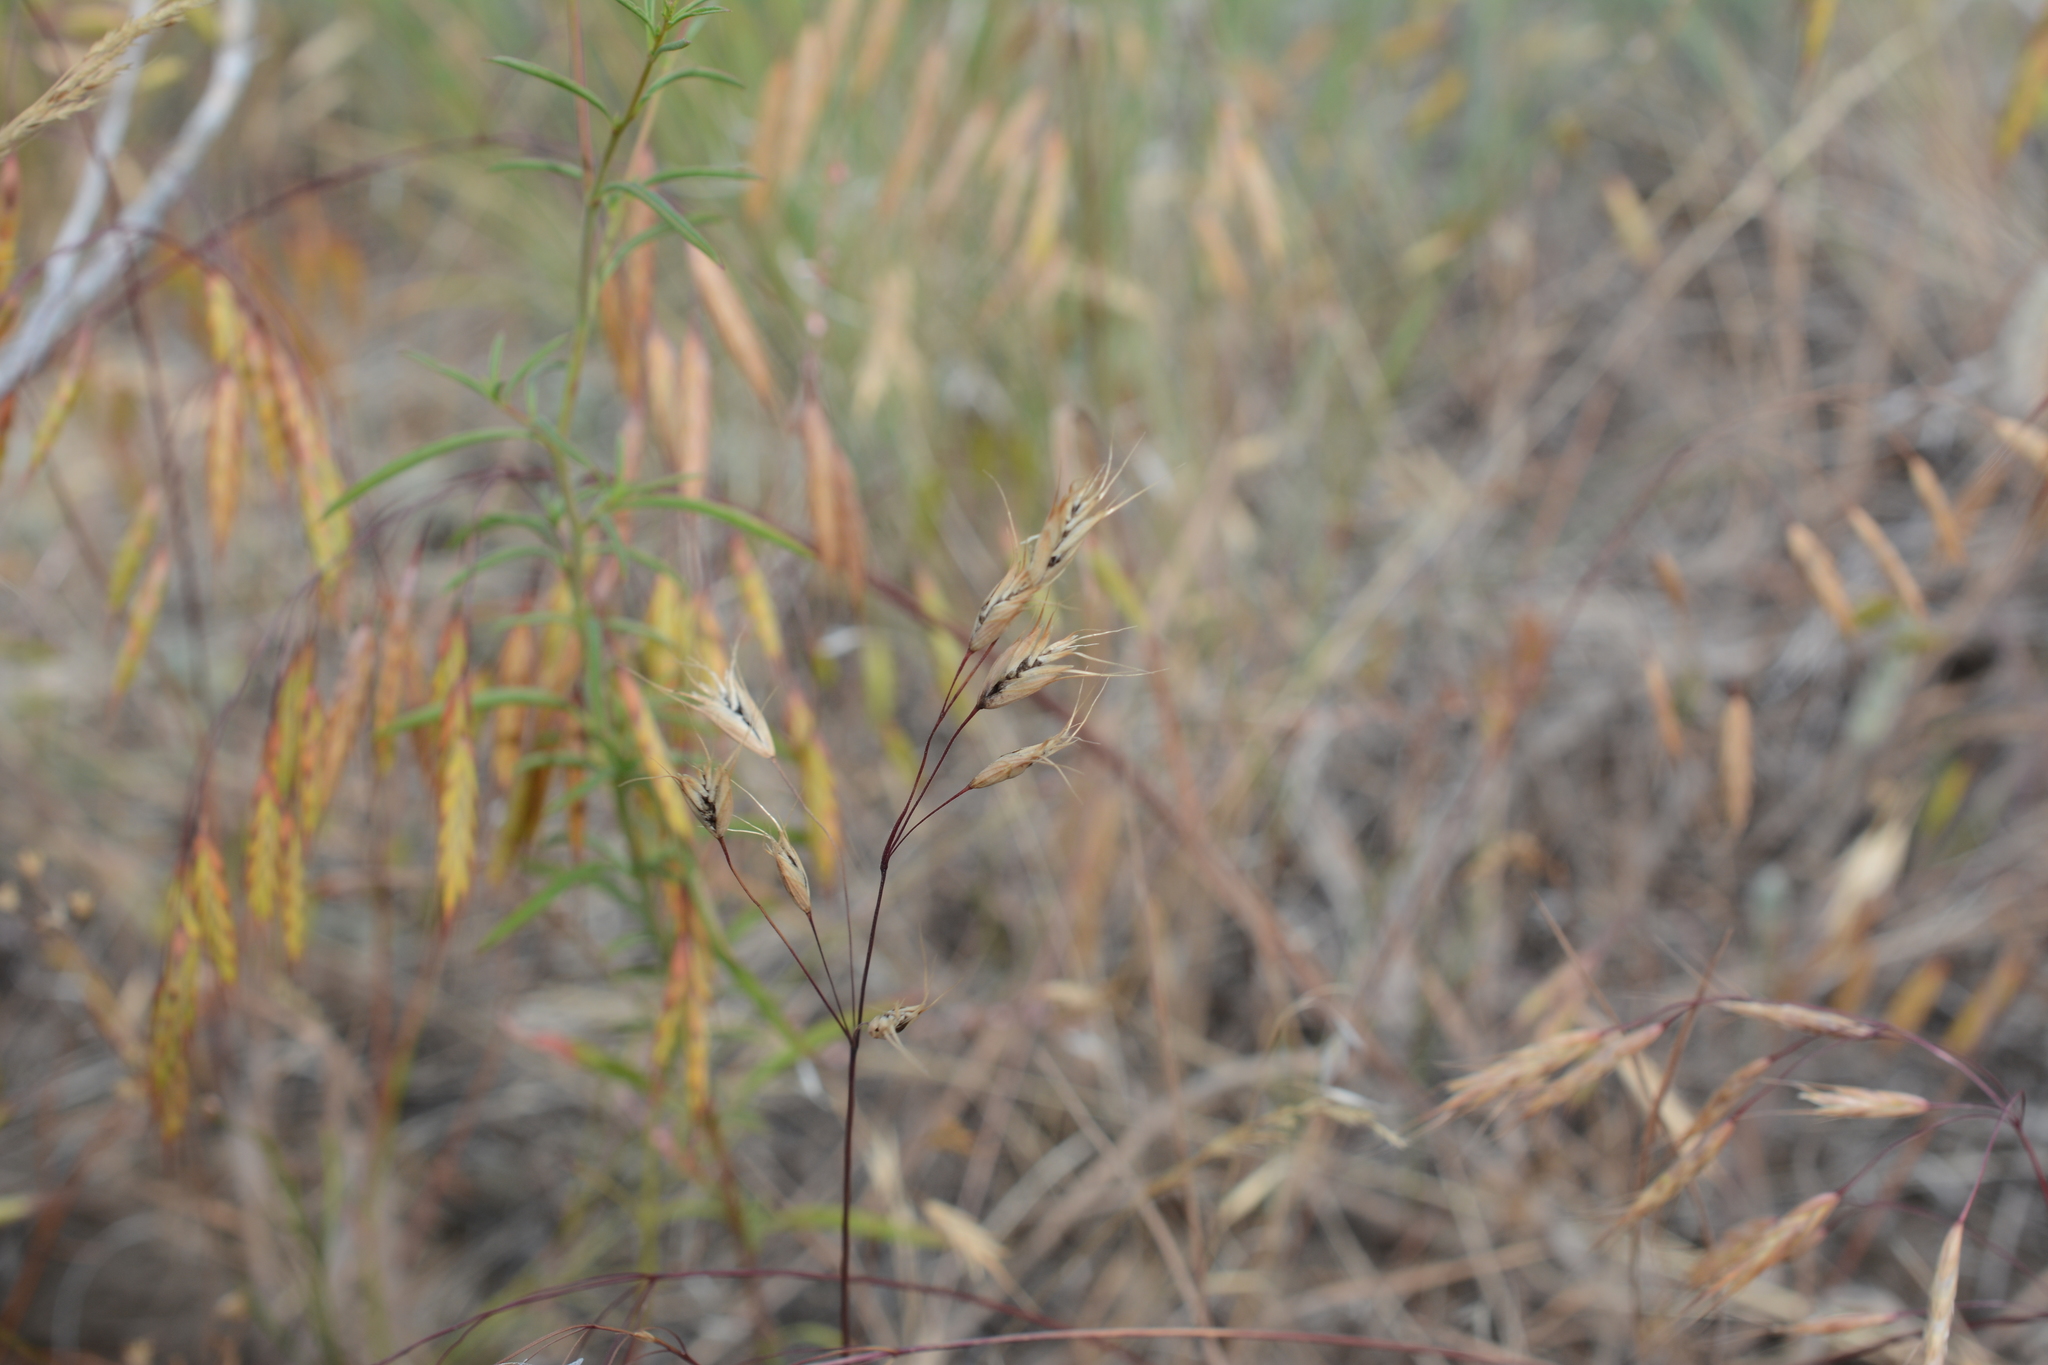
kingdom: Plantae
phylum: Tracheophyta
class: Liliopsida
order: Poales
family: Poaceae
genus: Bromus
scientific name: Bromus tectorum
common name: Cheatgrass
